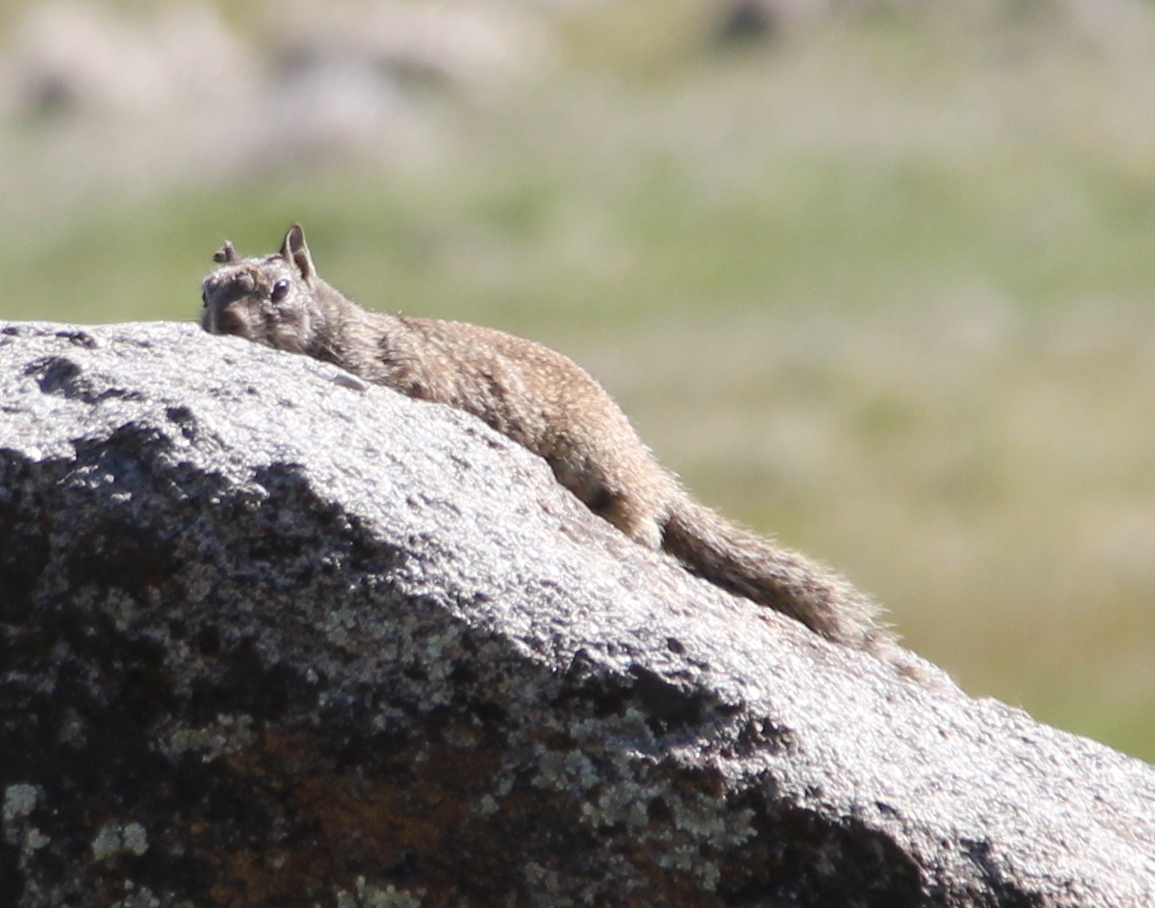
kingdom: Animalia
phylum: Chordata
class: Mammalia
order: Rodentia
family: Sciuridae
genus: Otospermophilus
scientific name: Otospermophilus beecheyi
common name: California ground squirrel
